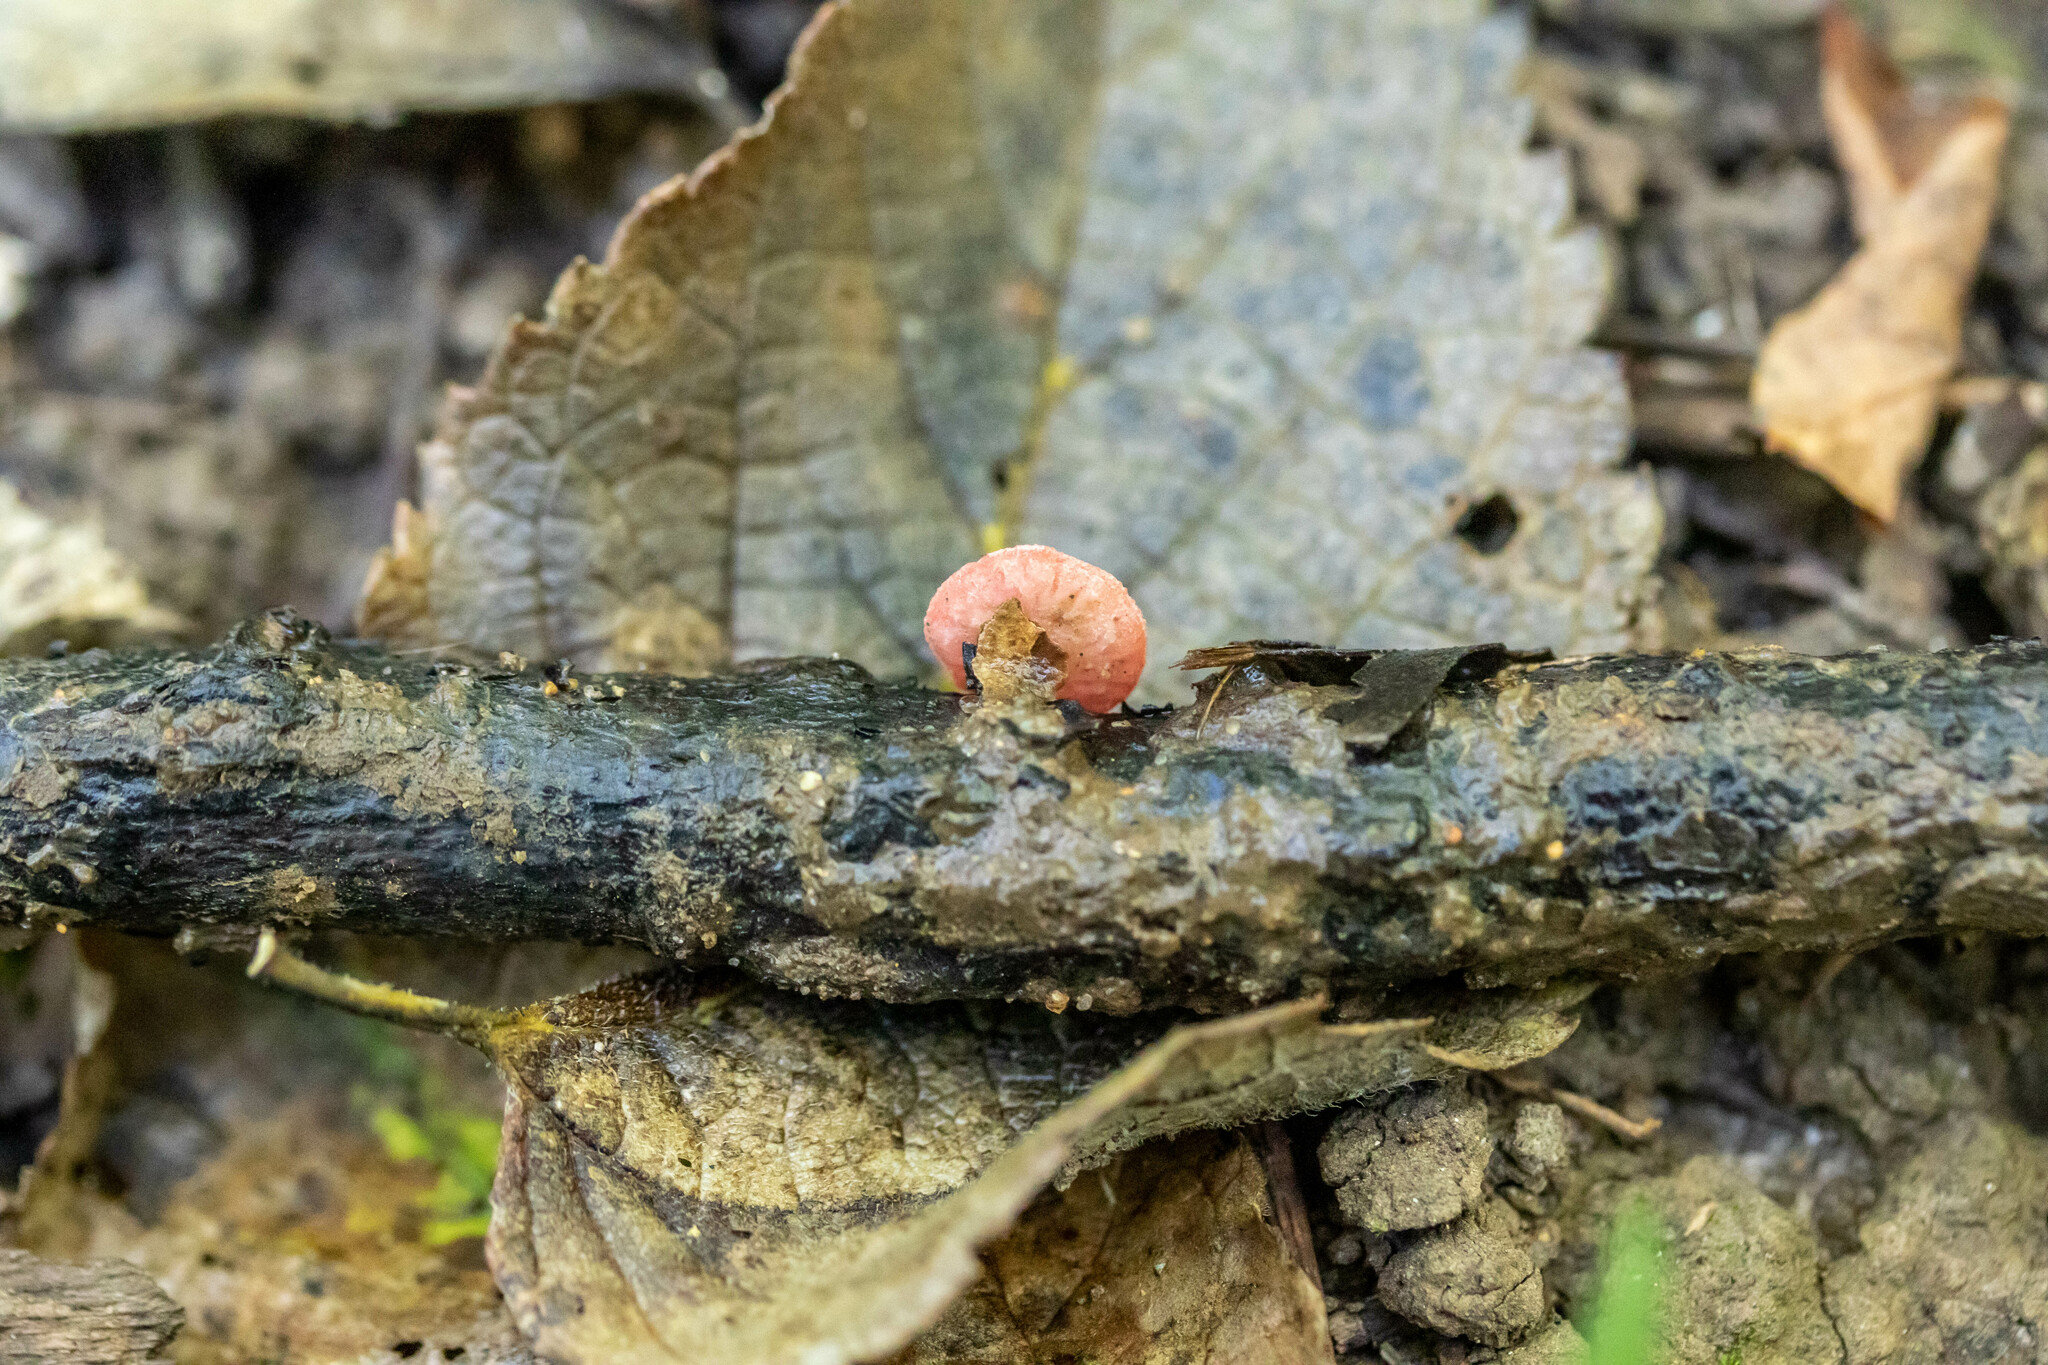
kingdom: Fungi
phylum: Ascomycota
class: Pezizomycetes
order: Pezizales
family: Sarcoscyphaceae
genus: Sarcoscypha
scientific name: Sarcoscypha occidentalis
